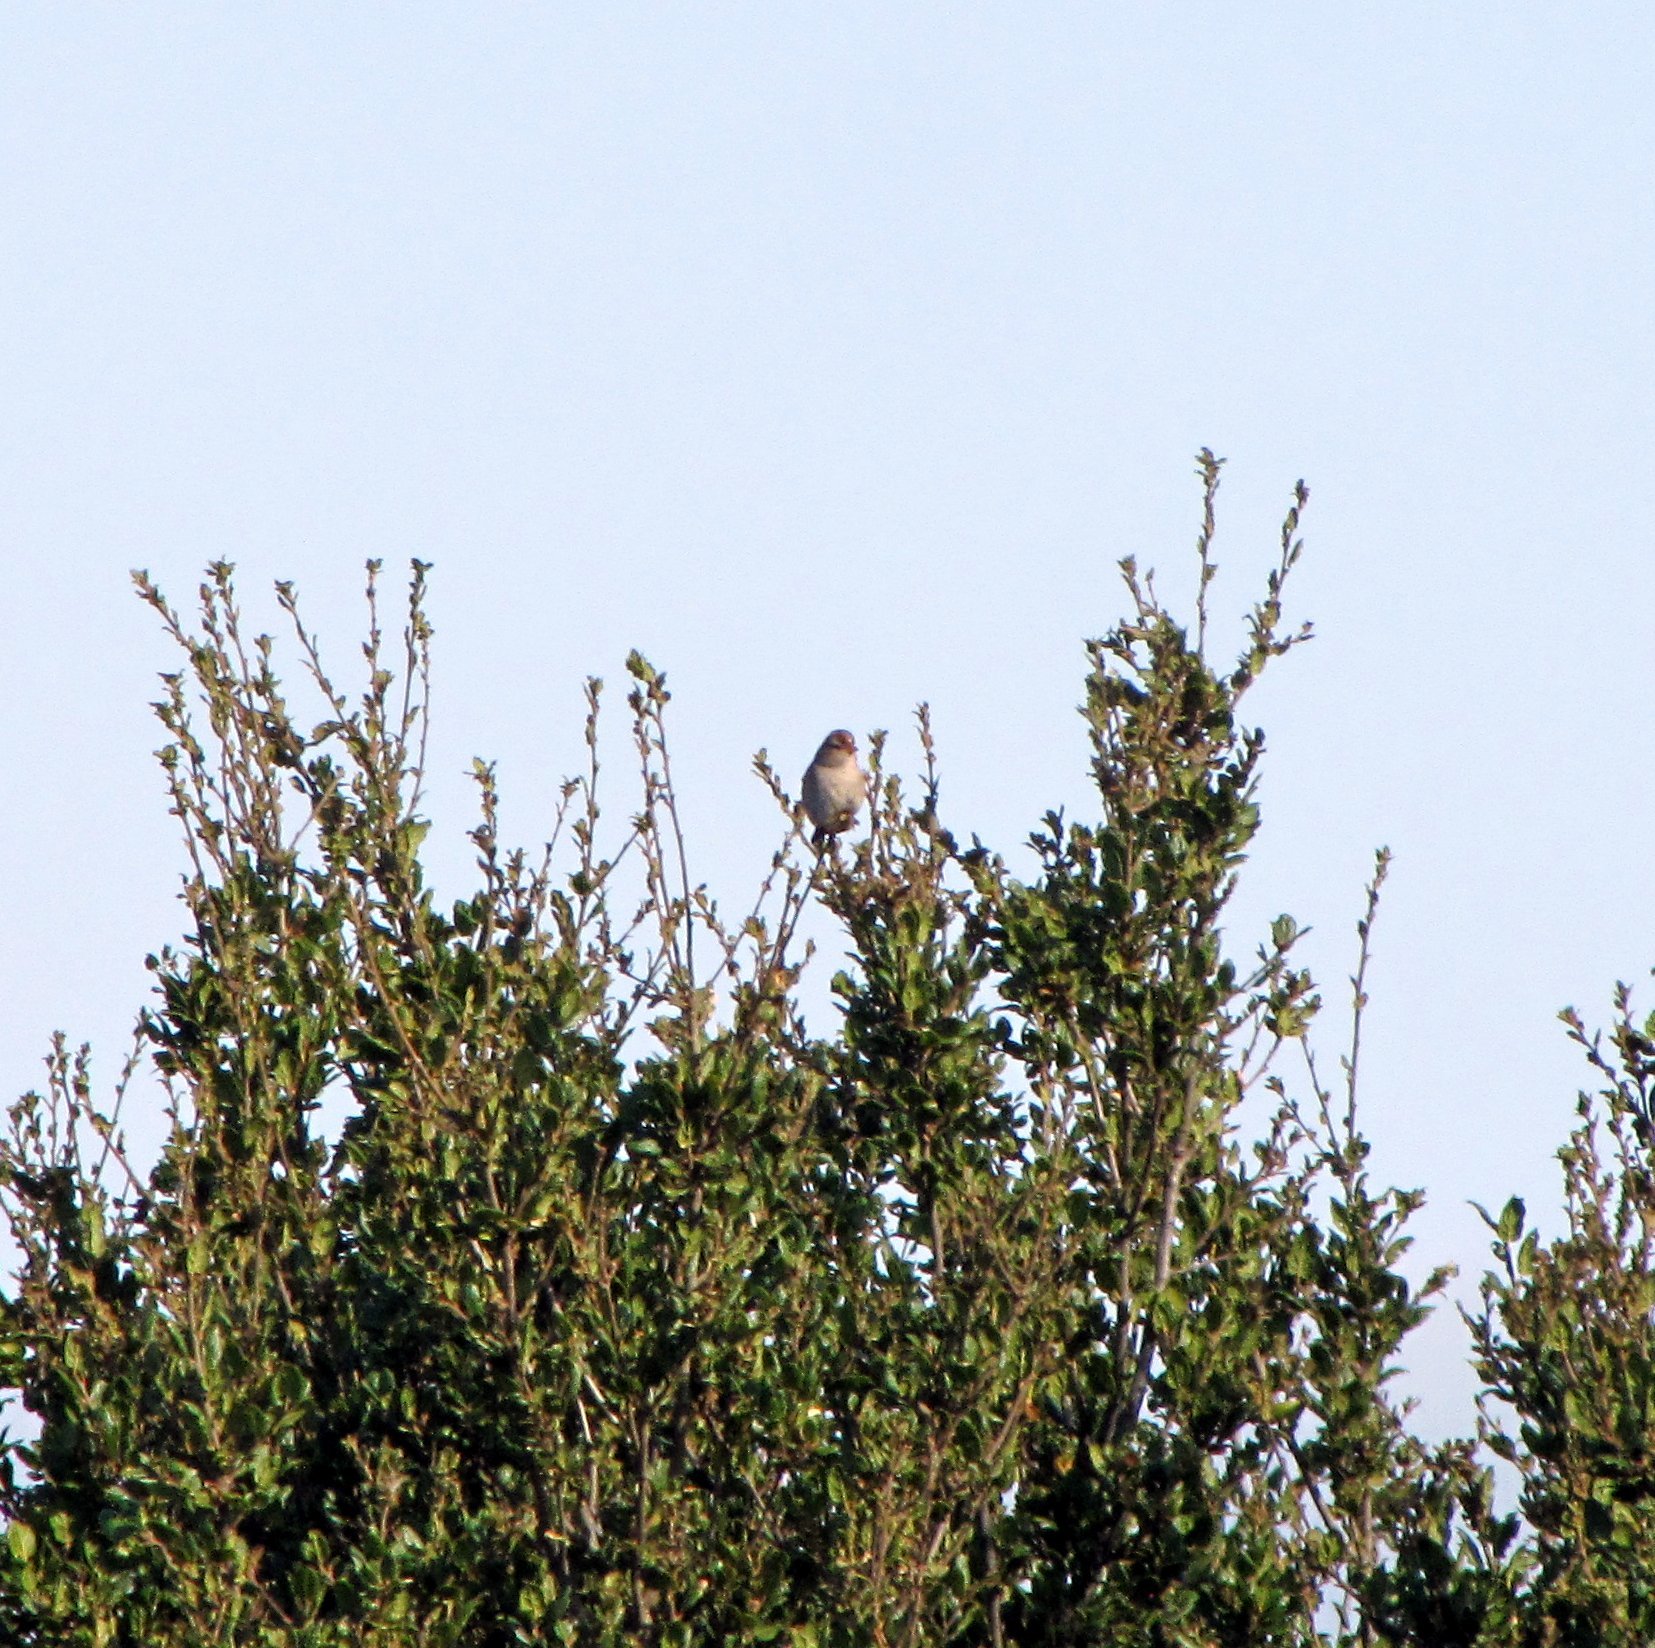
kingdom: Animalia
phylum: Chordata
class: Aves
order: Passeriformes
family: Passerellidae
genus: Zonotrichia
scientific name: Zonotrichia leucophrys
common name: White-crowned sparrow
